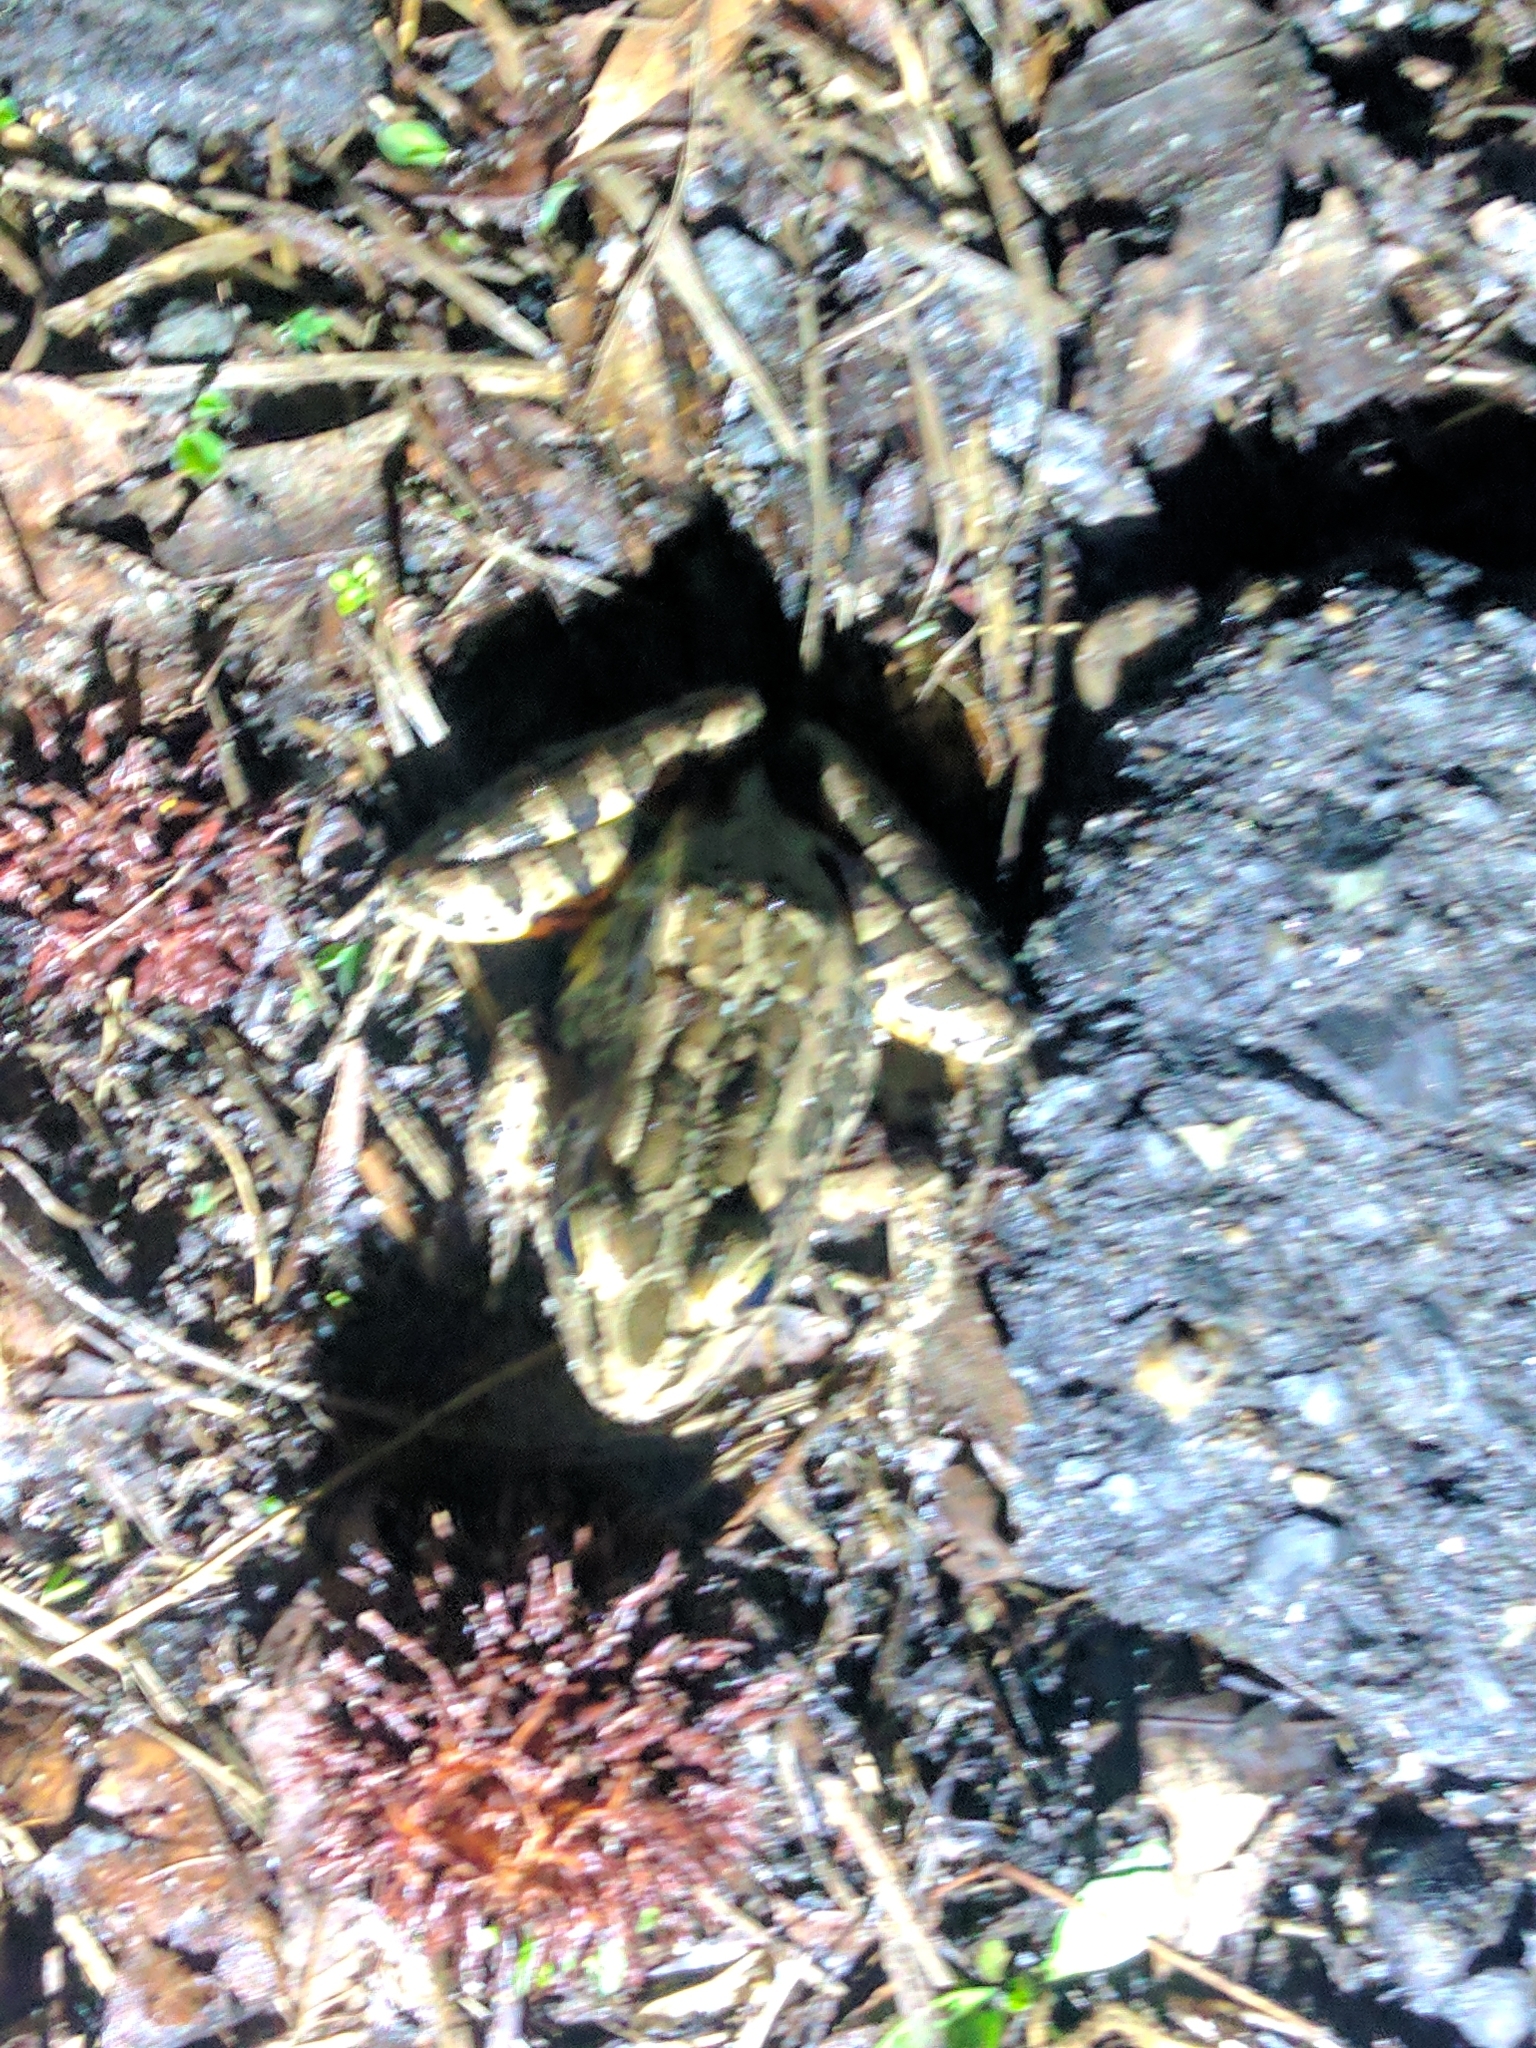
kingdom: Animalia
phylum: Chordata
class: Amphibia
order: Anura
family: Ranidae
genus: Lithobates
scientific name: Lithobates palustris
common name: Pickerel frog
